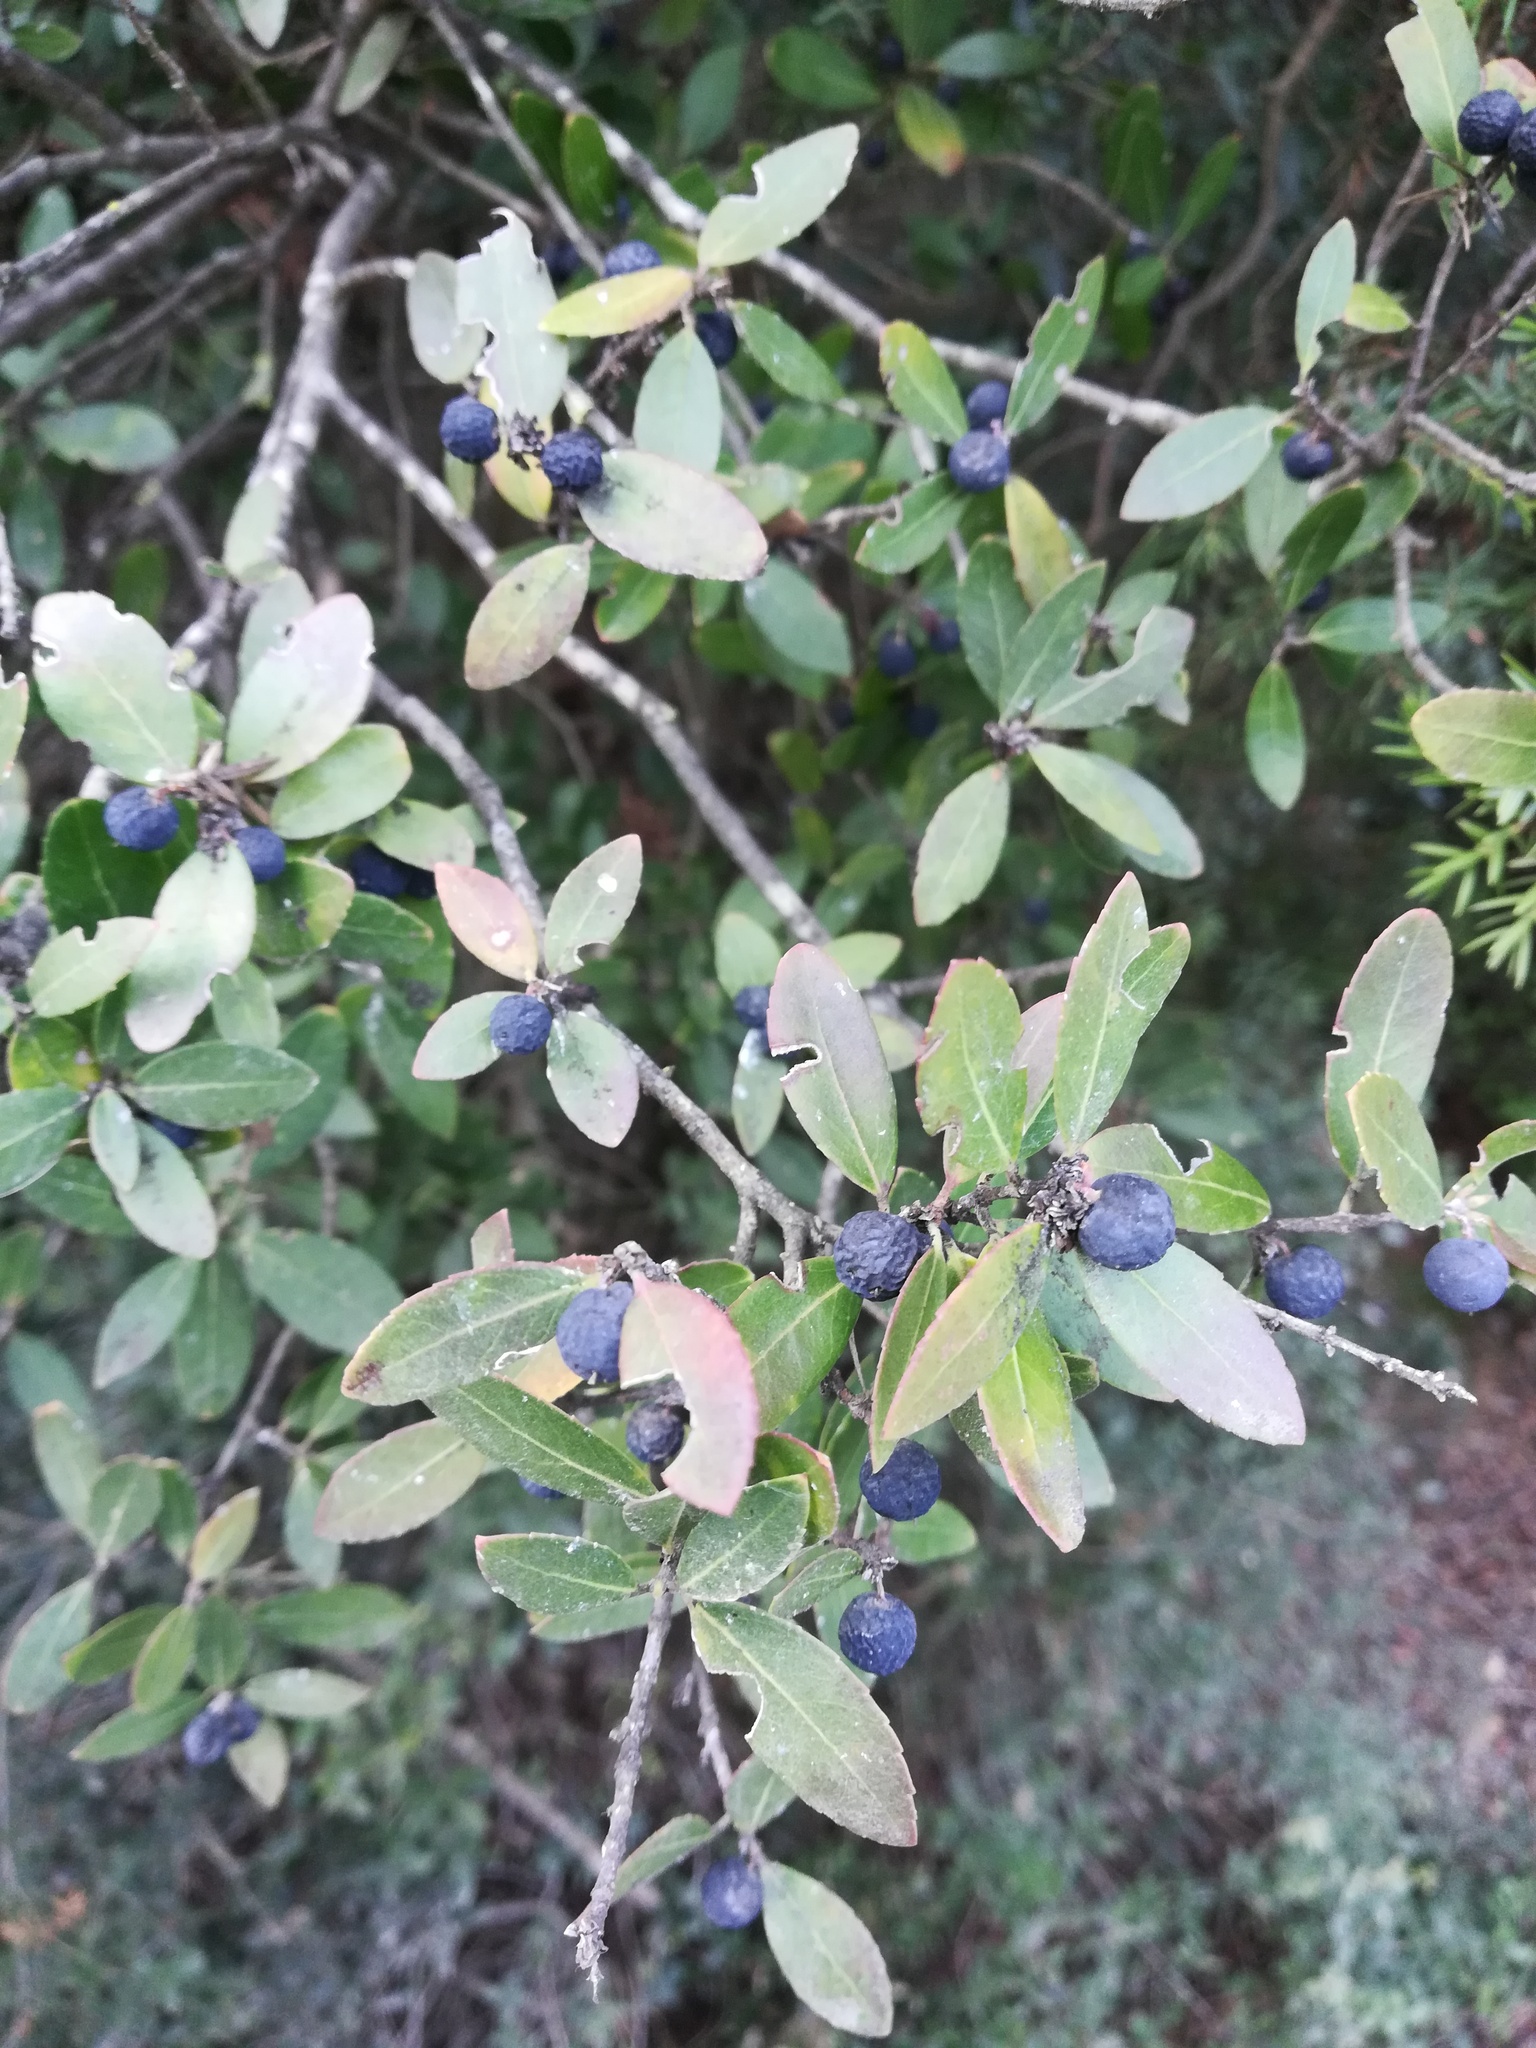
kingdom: Plantae
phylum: Tracheophyta
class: Magnoliopsida
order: Lamiales
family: Oleaceae
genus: Phillyrea
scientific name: Phillyrea latifolia
